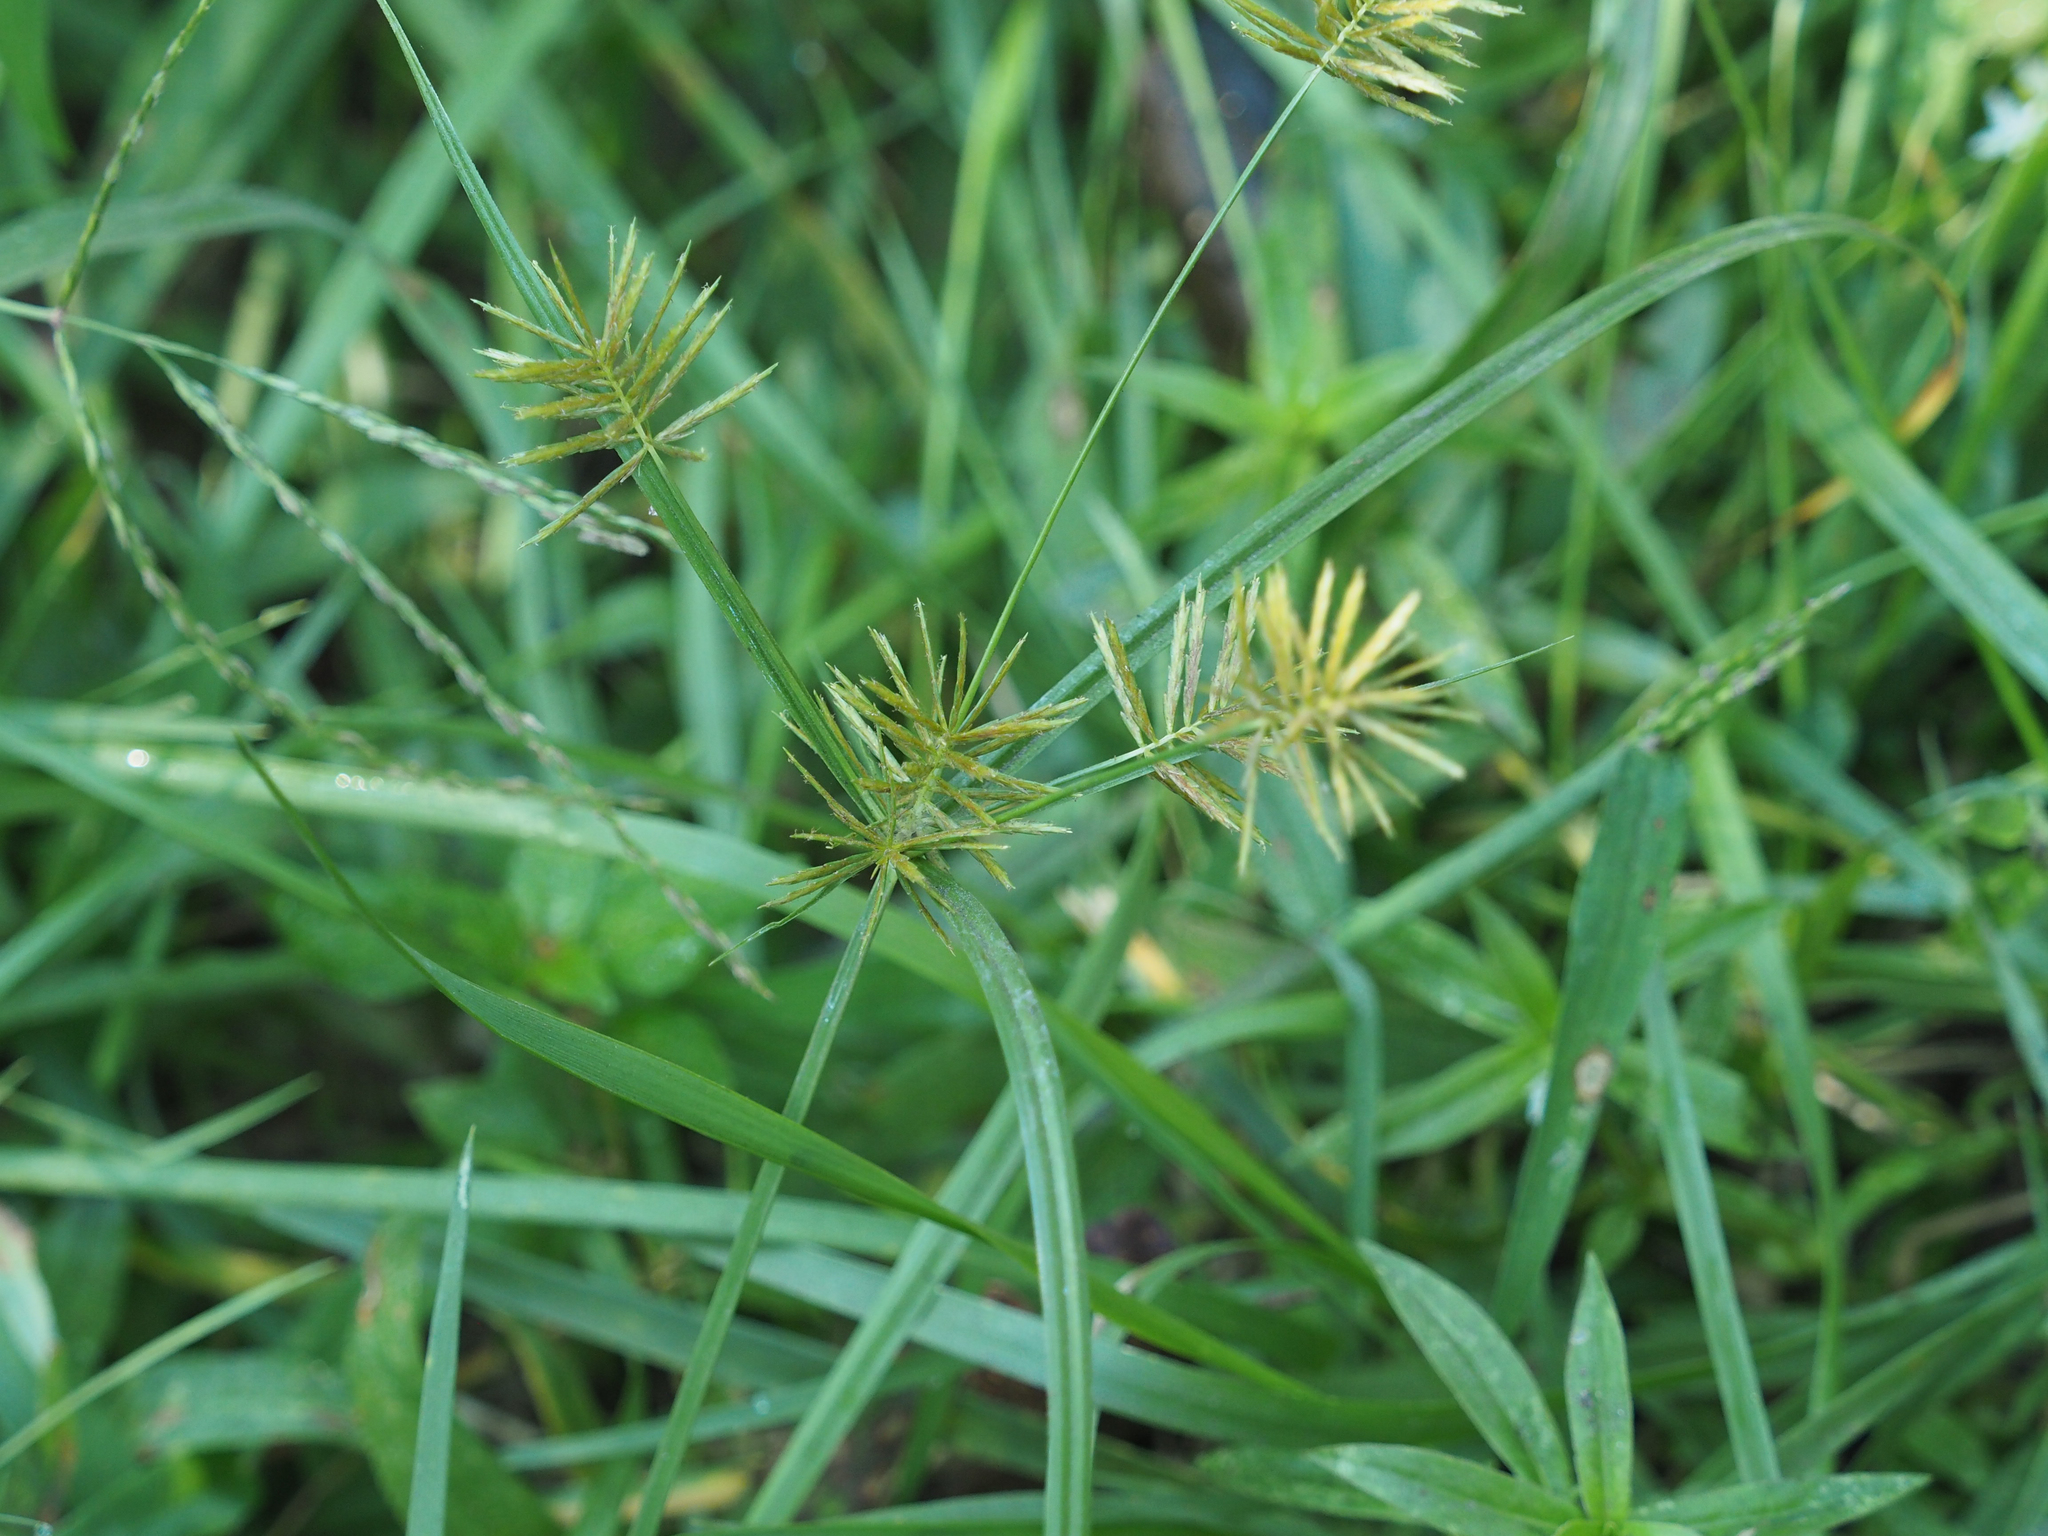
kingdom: Plantae
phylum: Tracheophyta
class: Liliopsida
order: Poales
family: Cyperaceae
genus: Cyperus
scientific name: Cyperus strigosus
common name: False nutsedge
